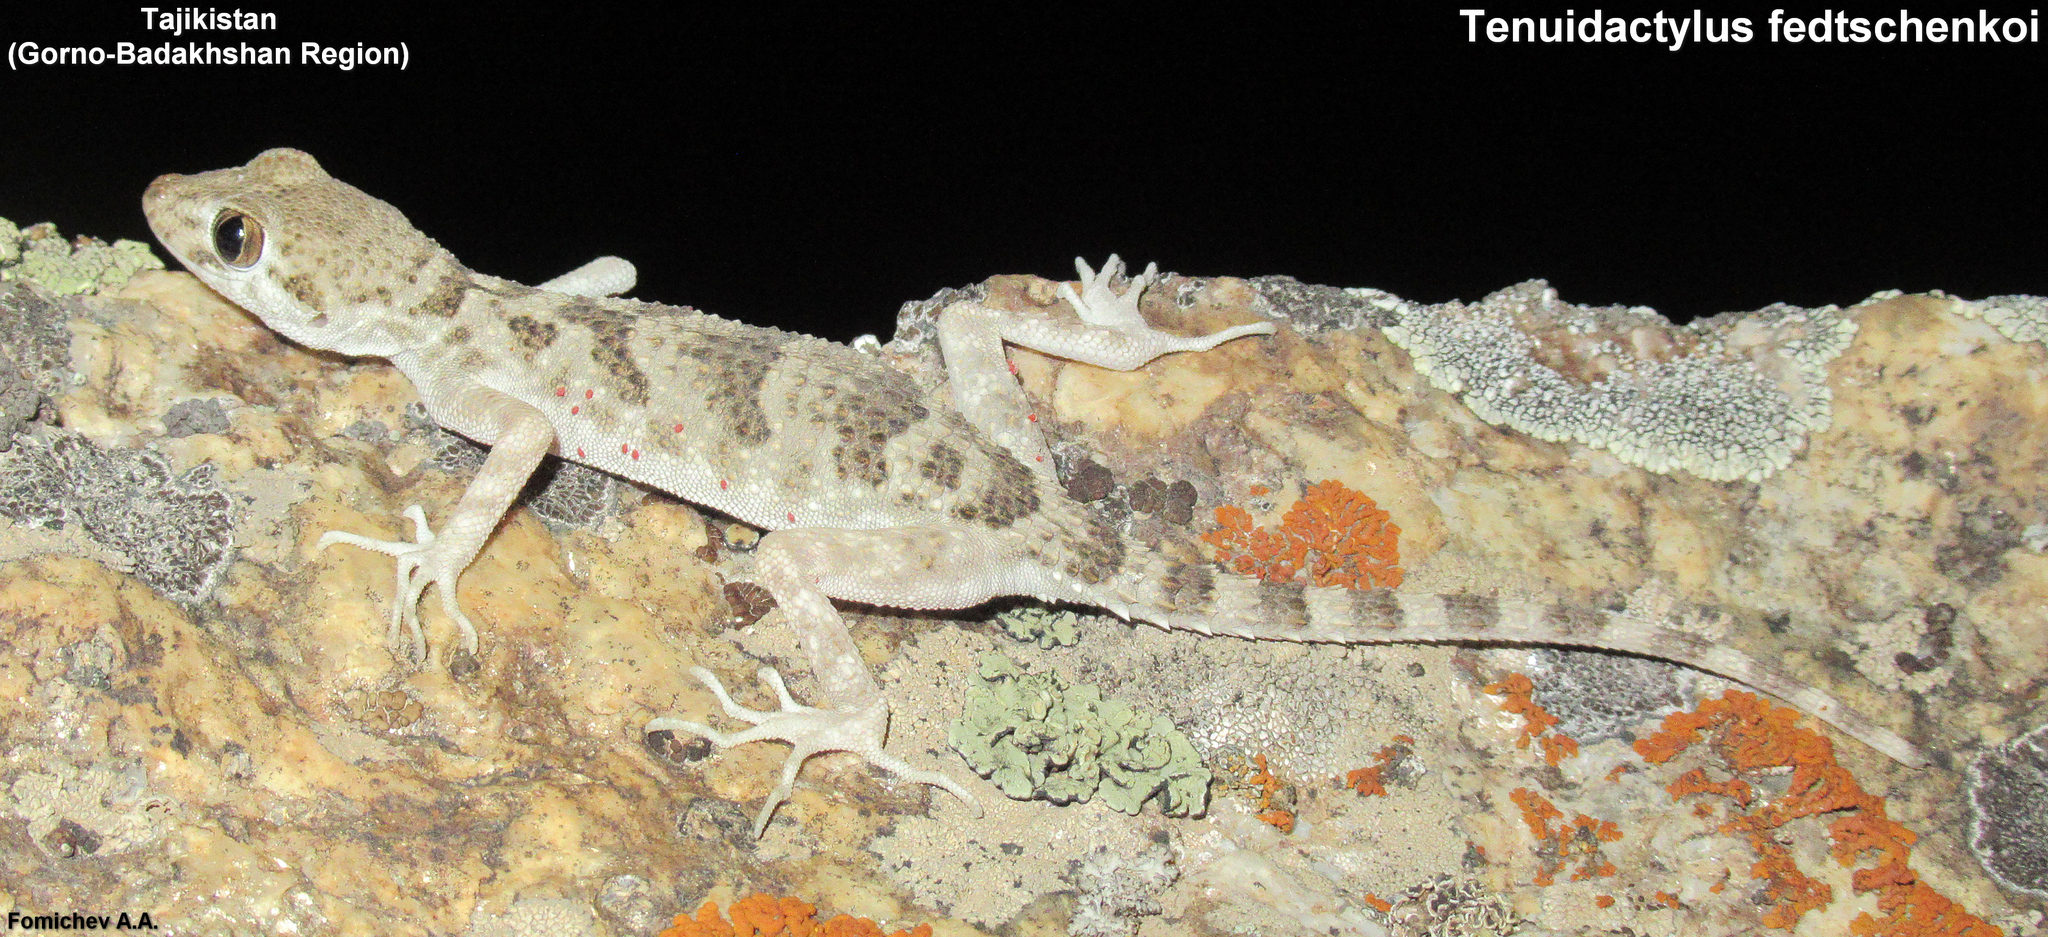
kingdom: Animalia
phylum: Chordata
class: Squamata
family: Gekkonidae
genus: Tenuidactylus
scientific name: Tenuidactylus fedtschenkoi
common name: Turkestan thin-toed gecko
